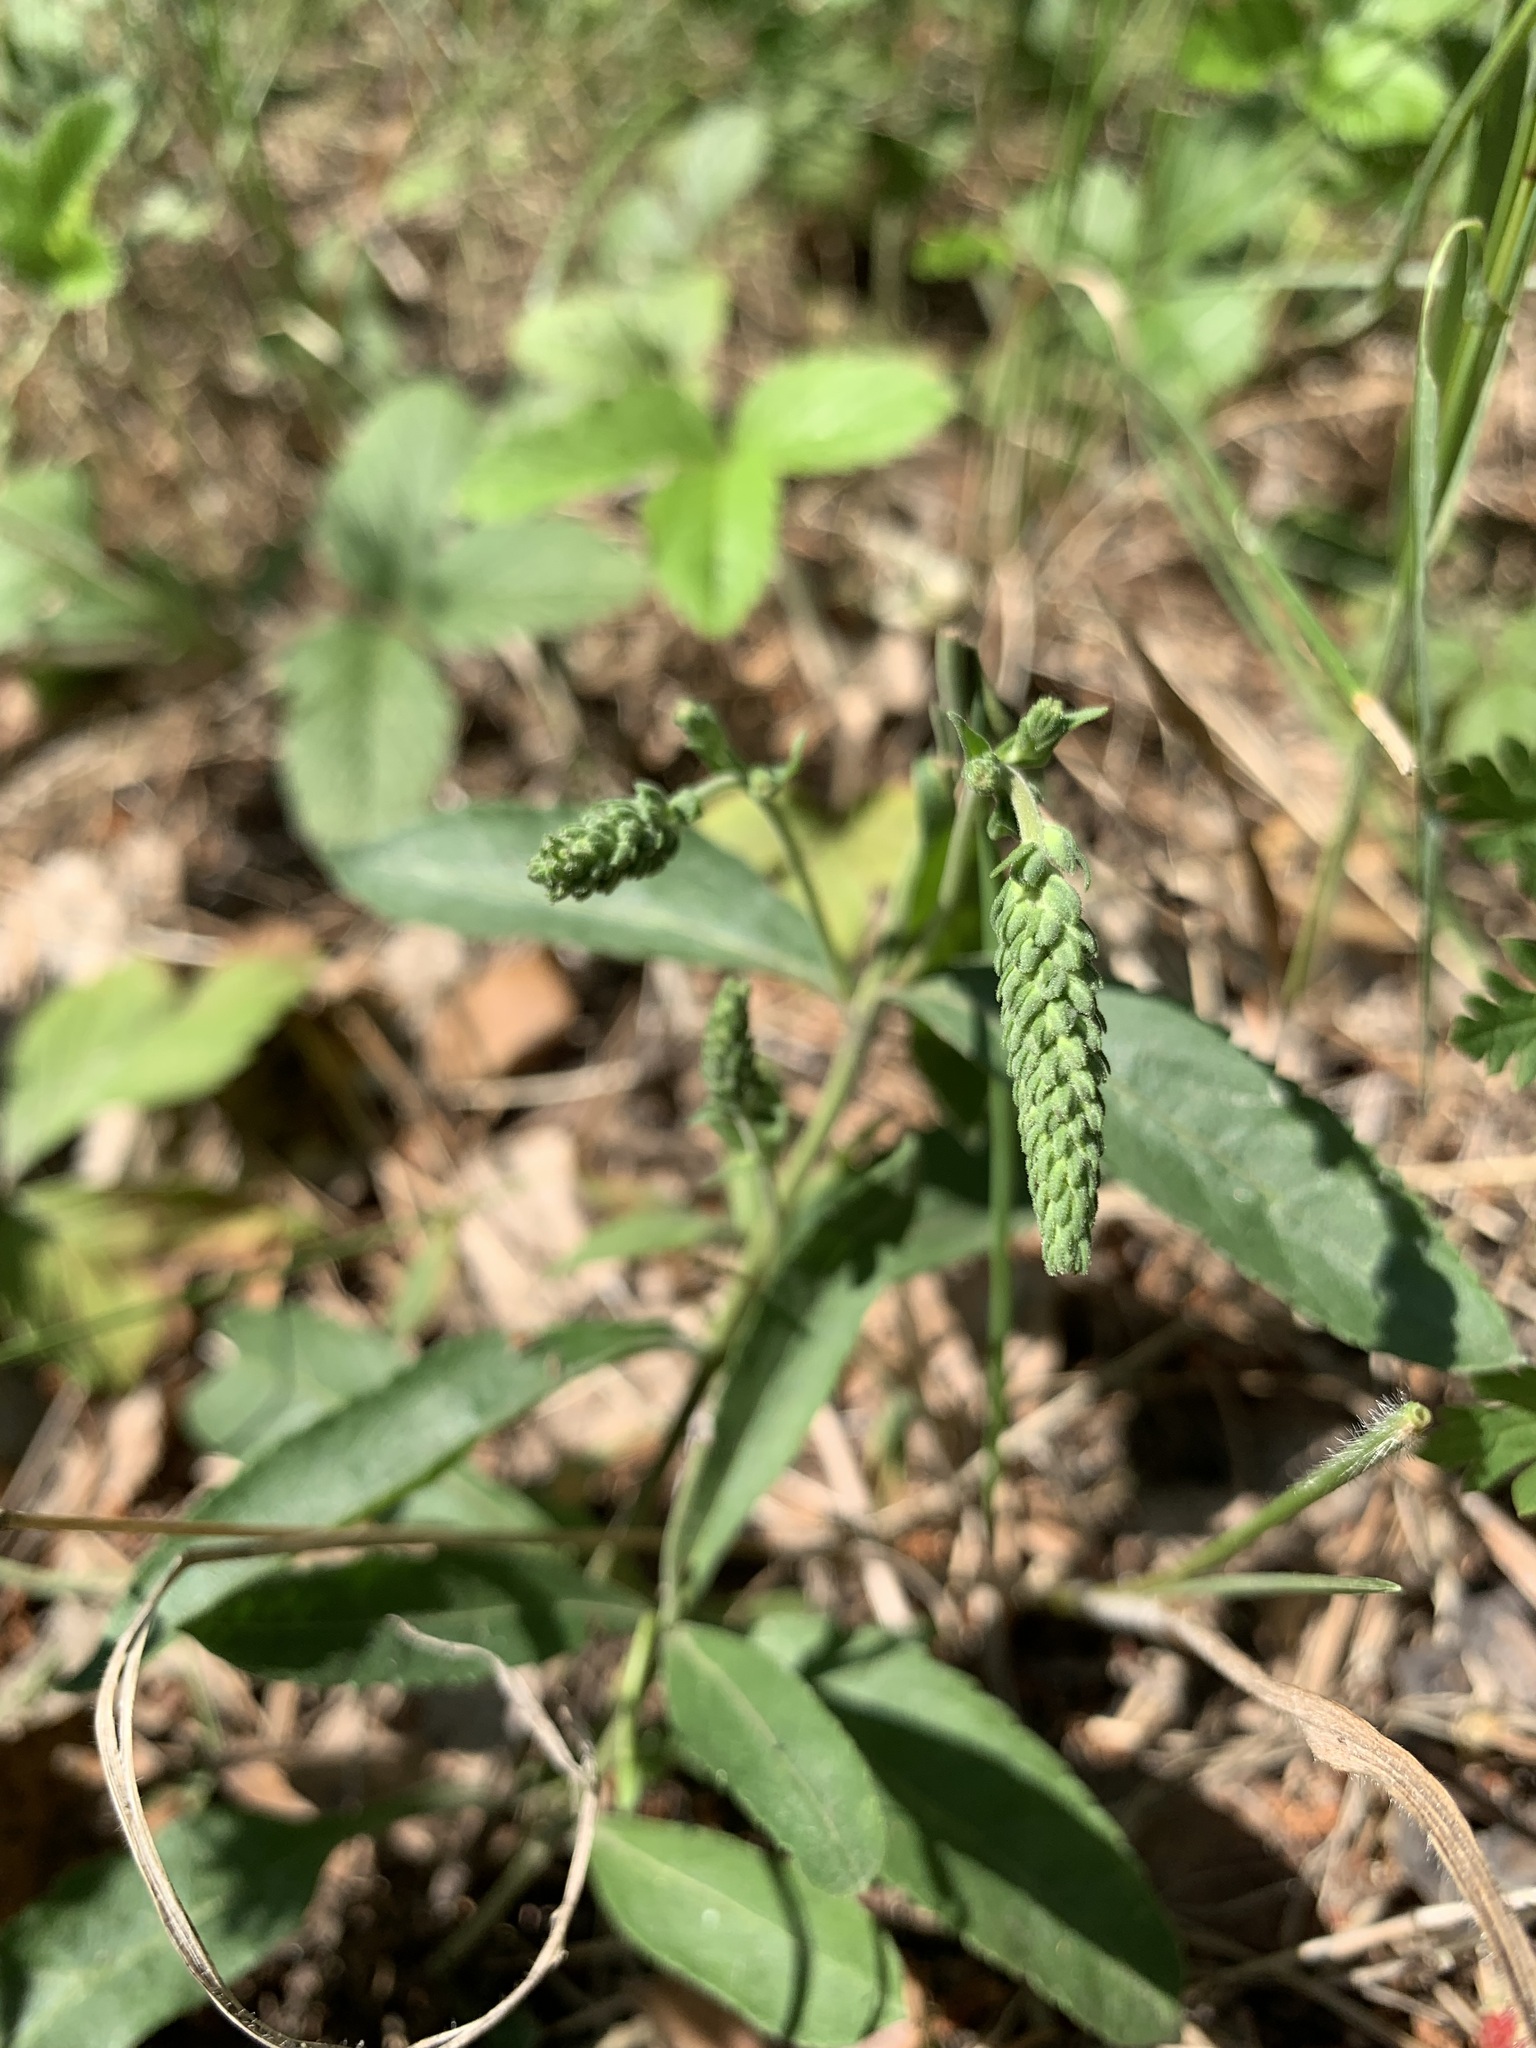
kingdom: Plantae
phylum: Tracheophyta
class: Magnoliopsida
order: Lamiales
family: Plantaginaceae
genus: Veronica
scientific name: Veronica spicata
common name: Spiked speedwell
